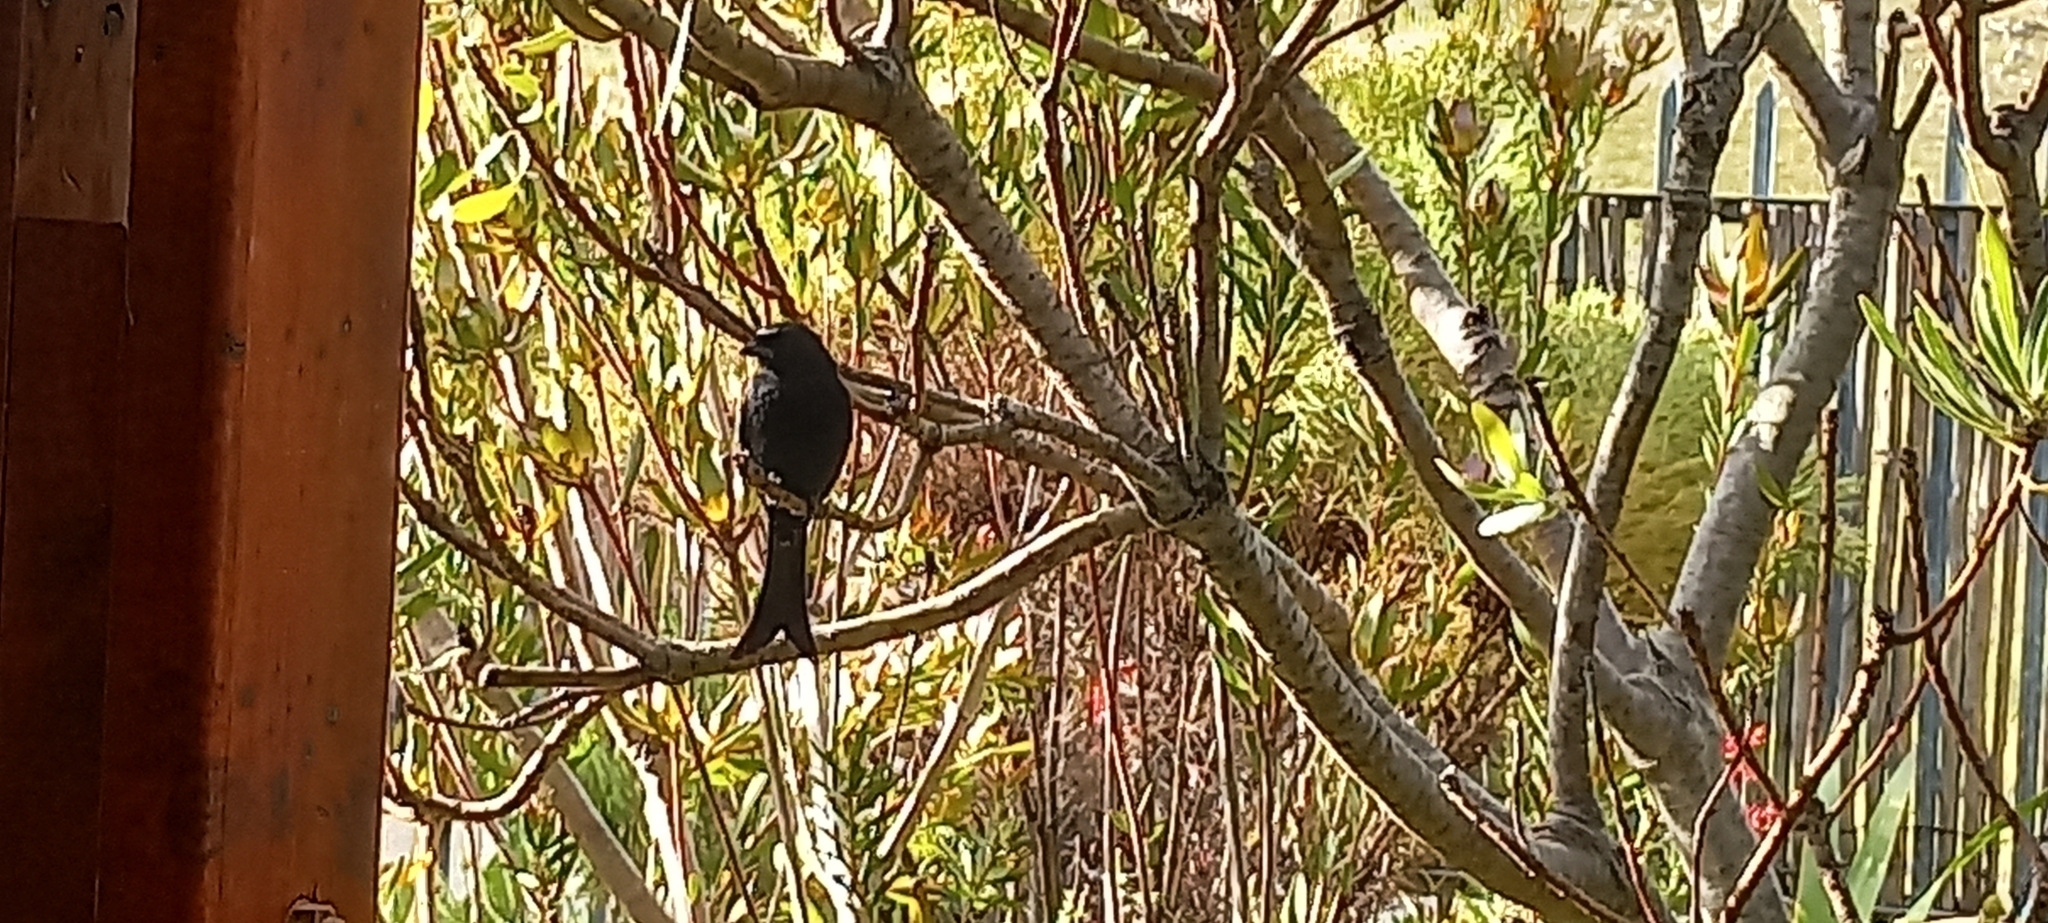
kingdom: Animalia
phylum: Chordata
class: Aves
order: Passeriformes
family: Dicruridae
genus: Dicrurus
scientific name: Dicrurus adsimilis
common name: Fork-tailed drongo
